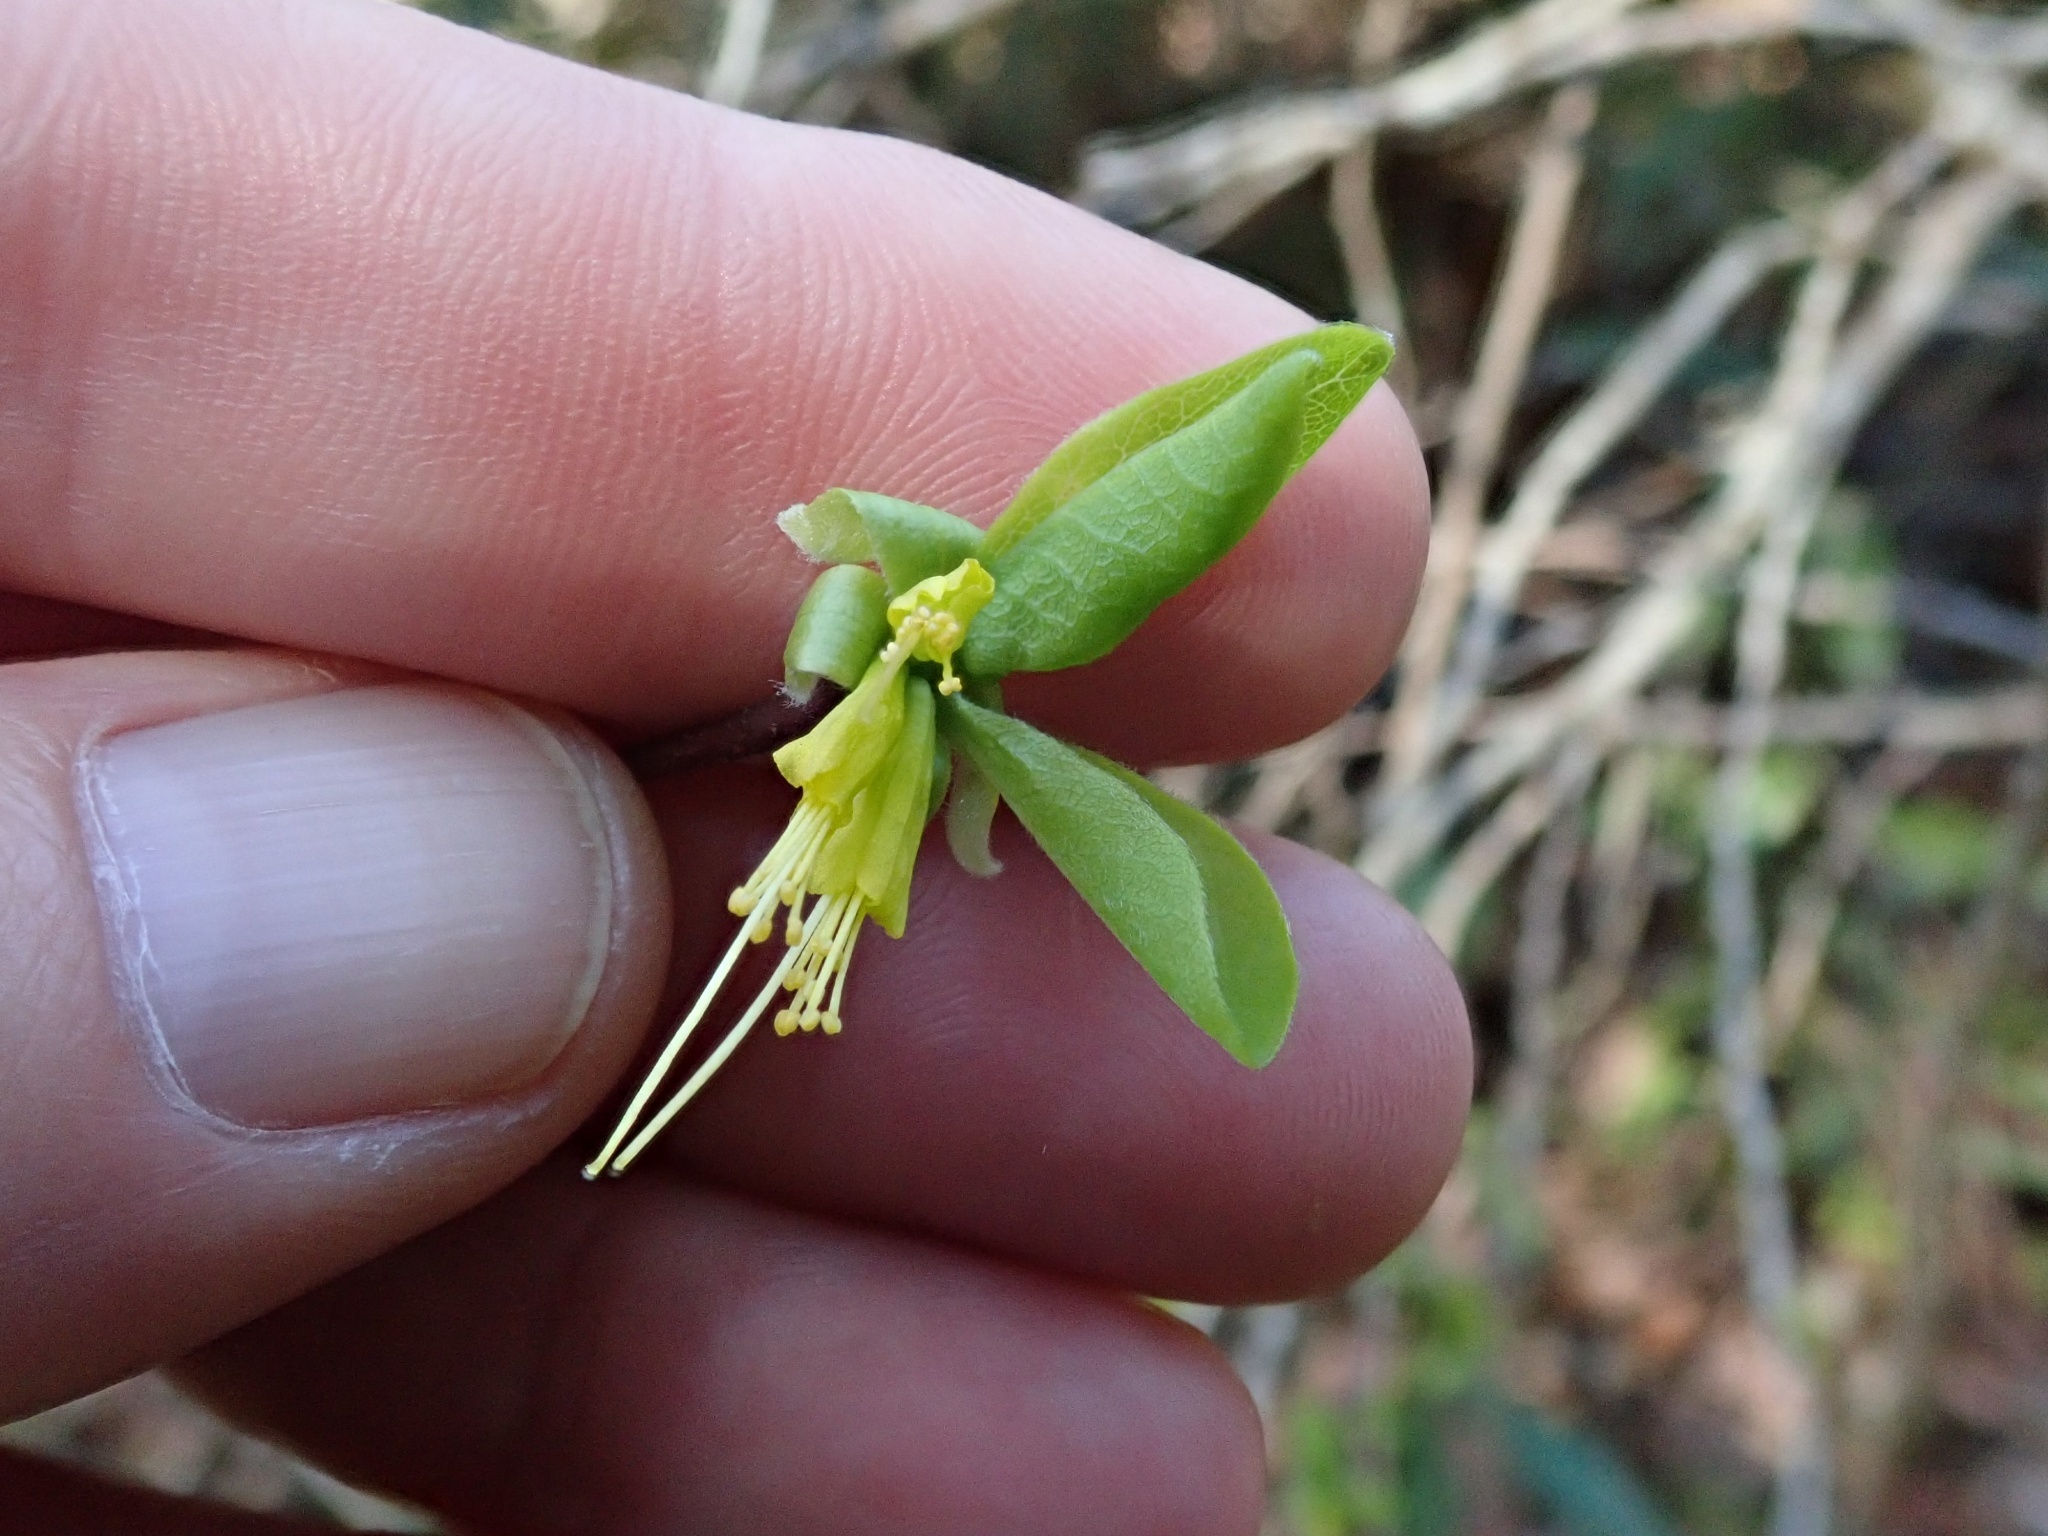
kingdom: Plantae
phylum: Tracheophyta
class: Magnoliopsida
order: Malvales
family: Thymelaeaceae
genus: Dirca
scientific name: Dirca occidentalis
